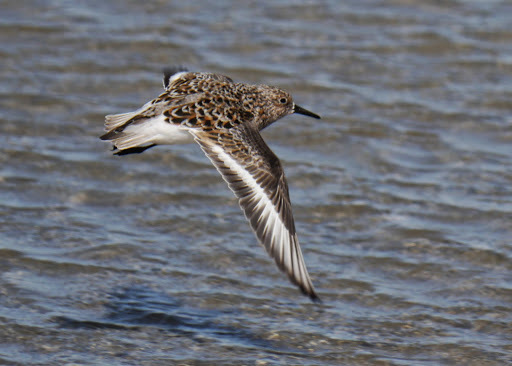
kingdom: Animalia
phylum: Chordata
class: Aves
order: Charadriiformes
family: Scolopacidae
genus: Calidris
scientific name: Calidris alba
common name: Sanderling
